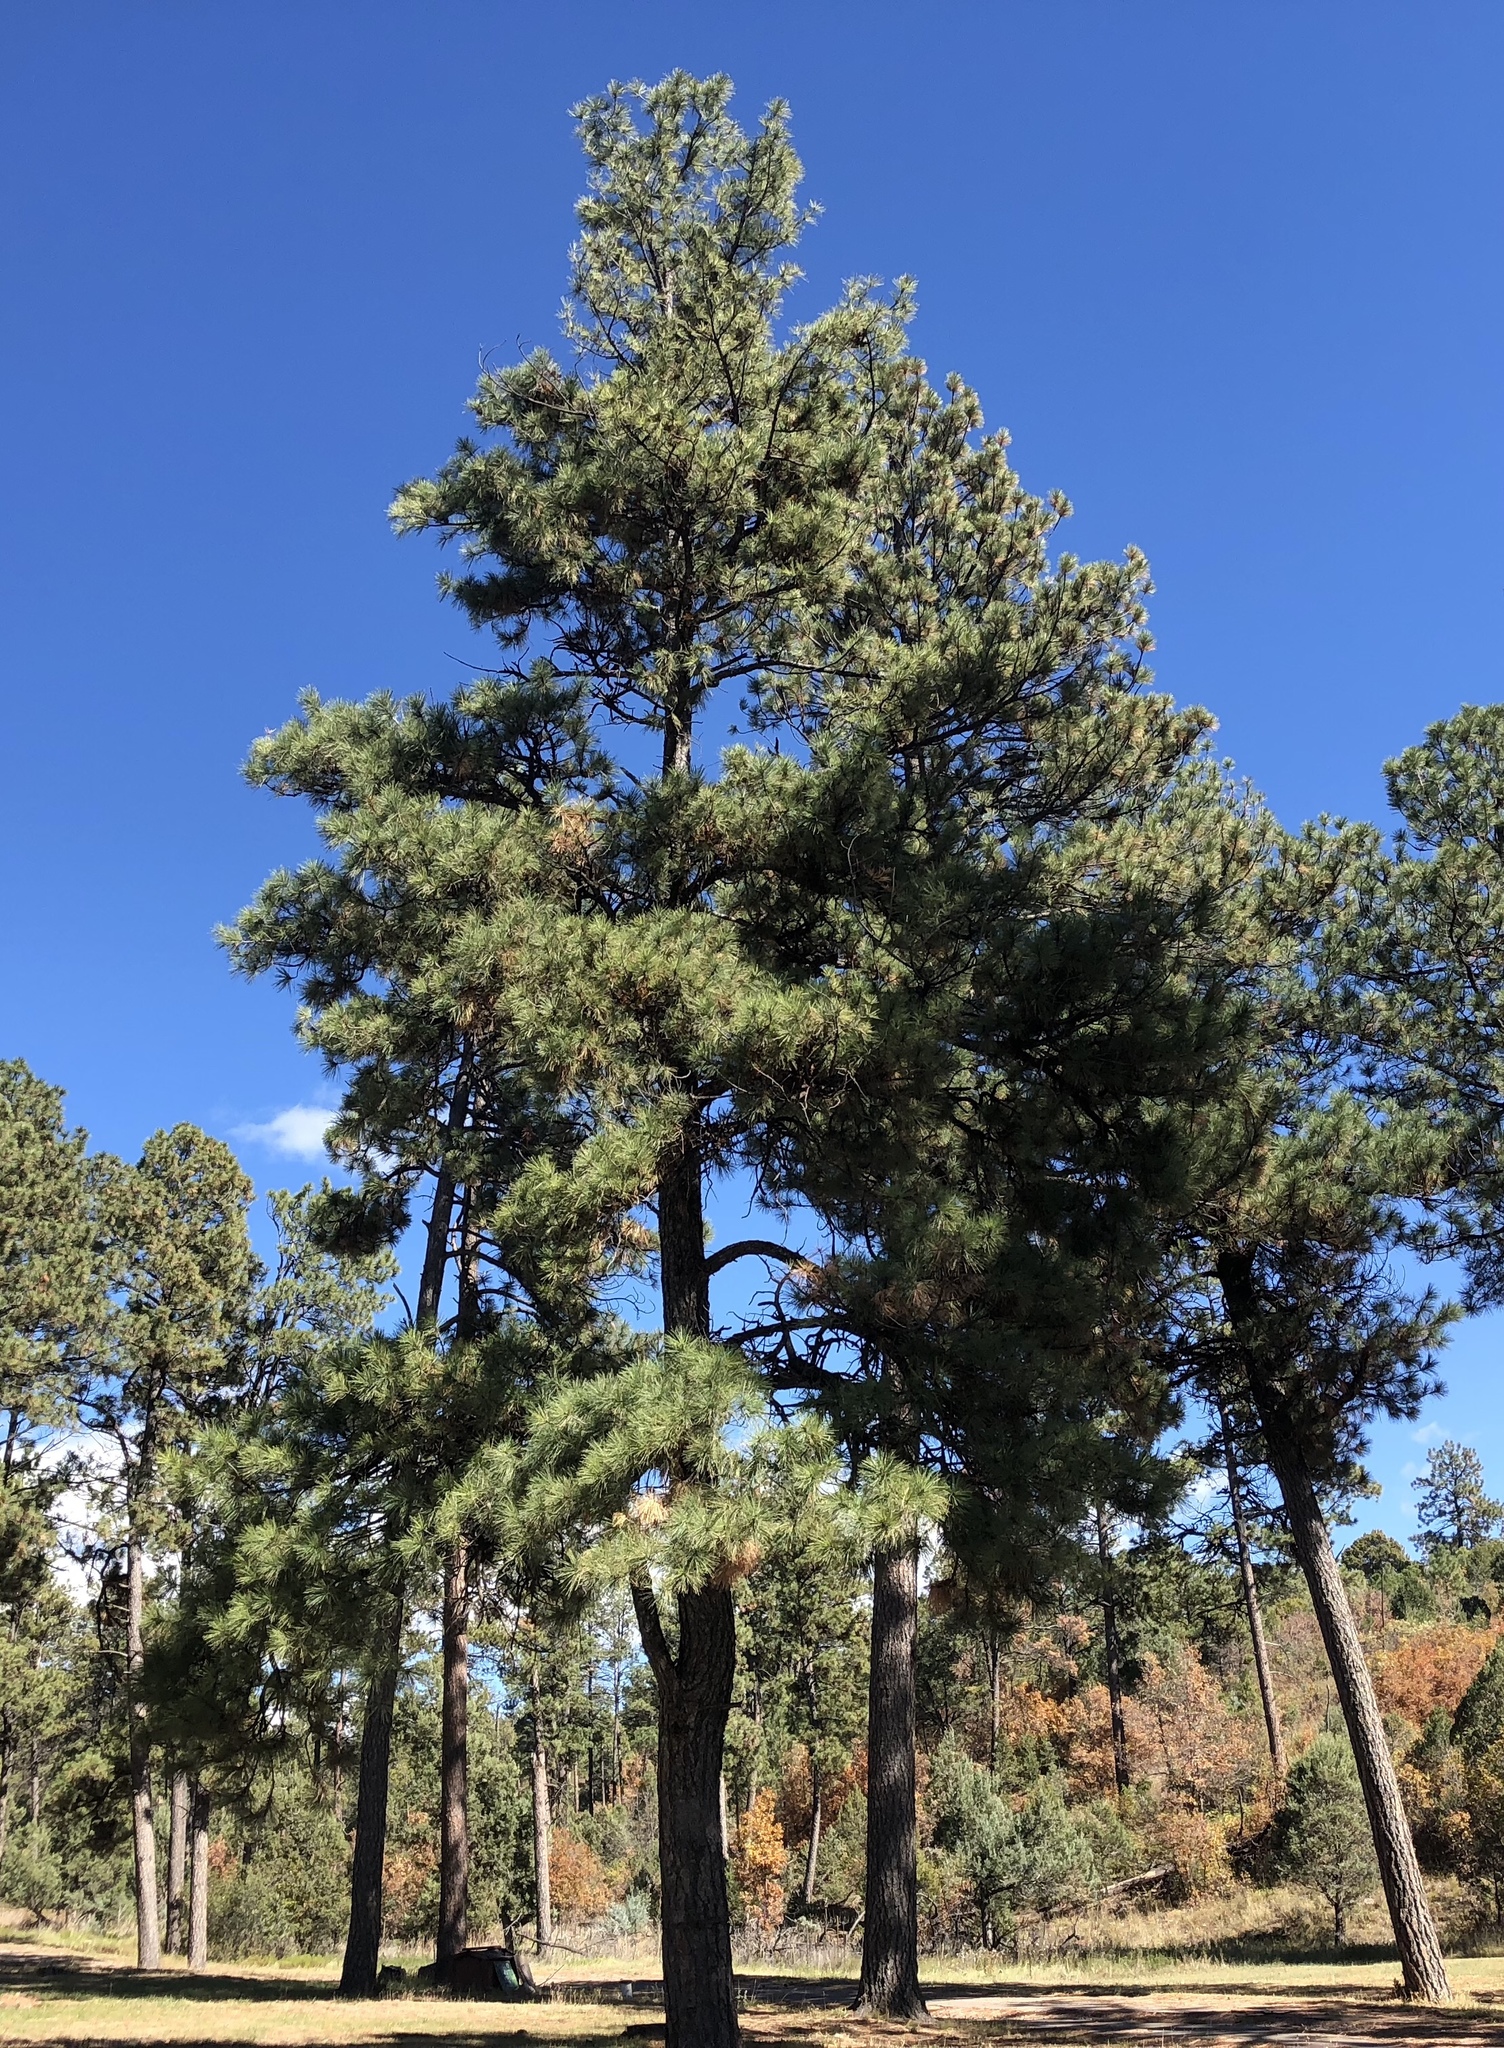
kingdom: Plantae
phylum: Tracheophyta
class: Pinopsida
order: Pinales
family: Pinaceae
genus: Pinus
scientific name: Pinus ponderosa
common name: Western yellow-pine
